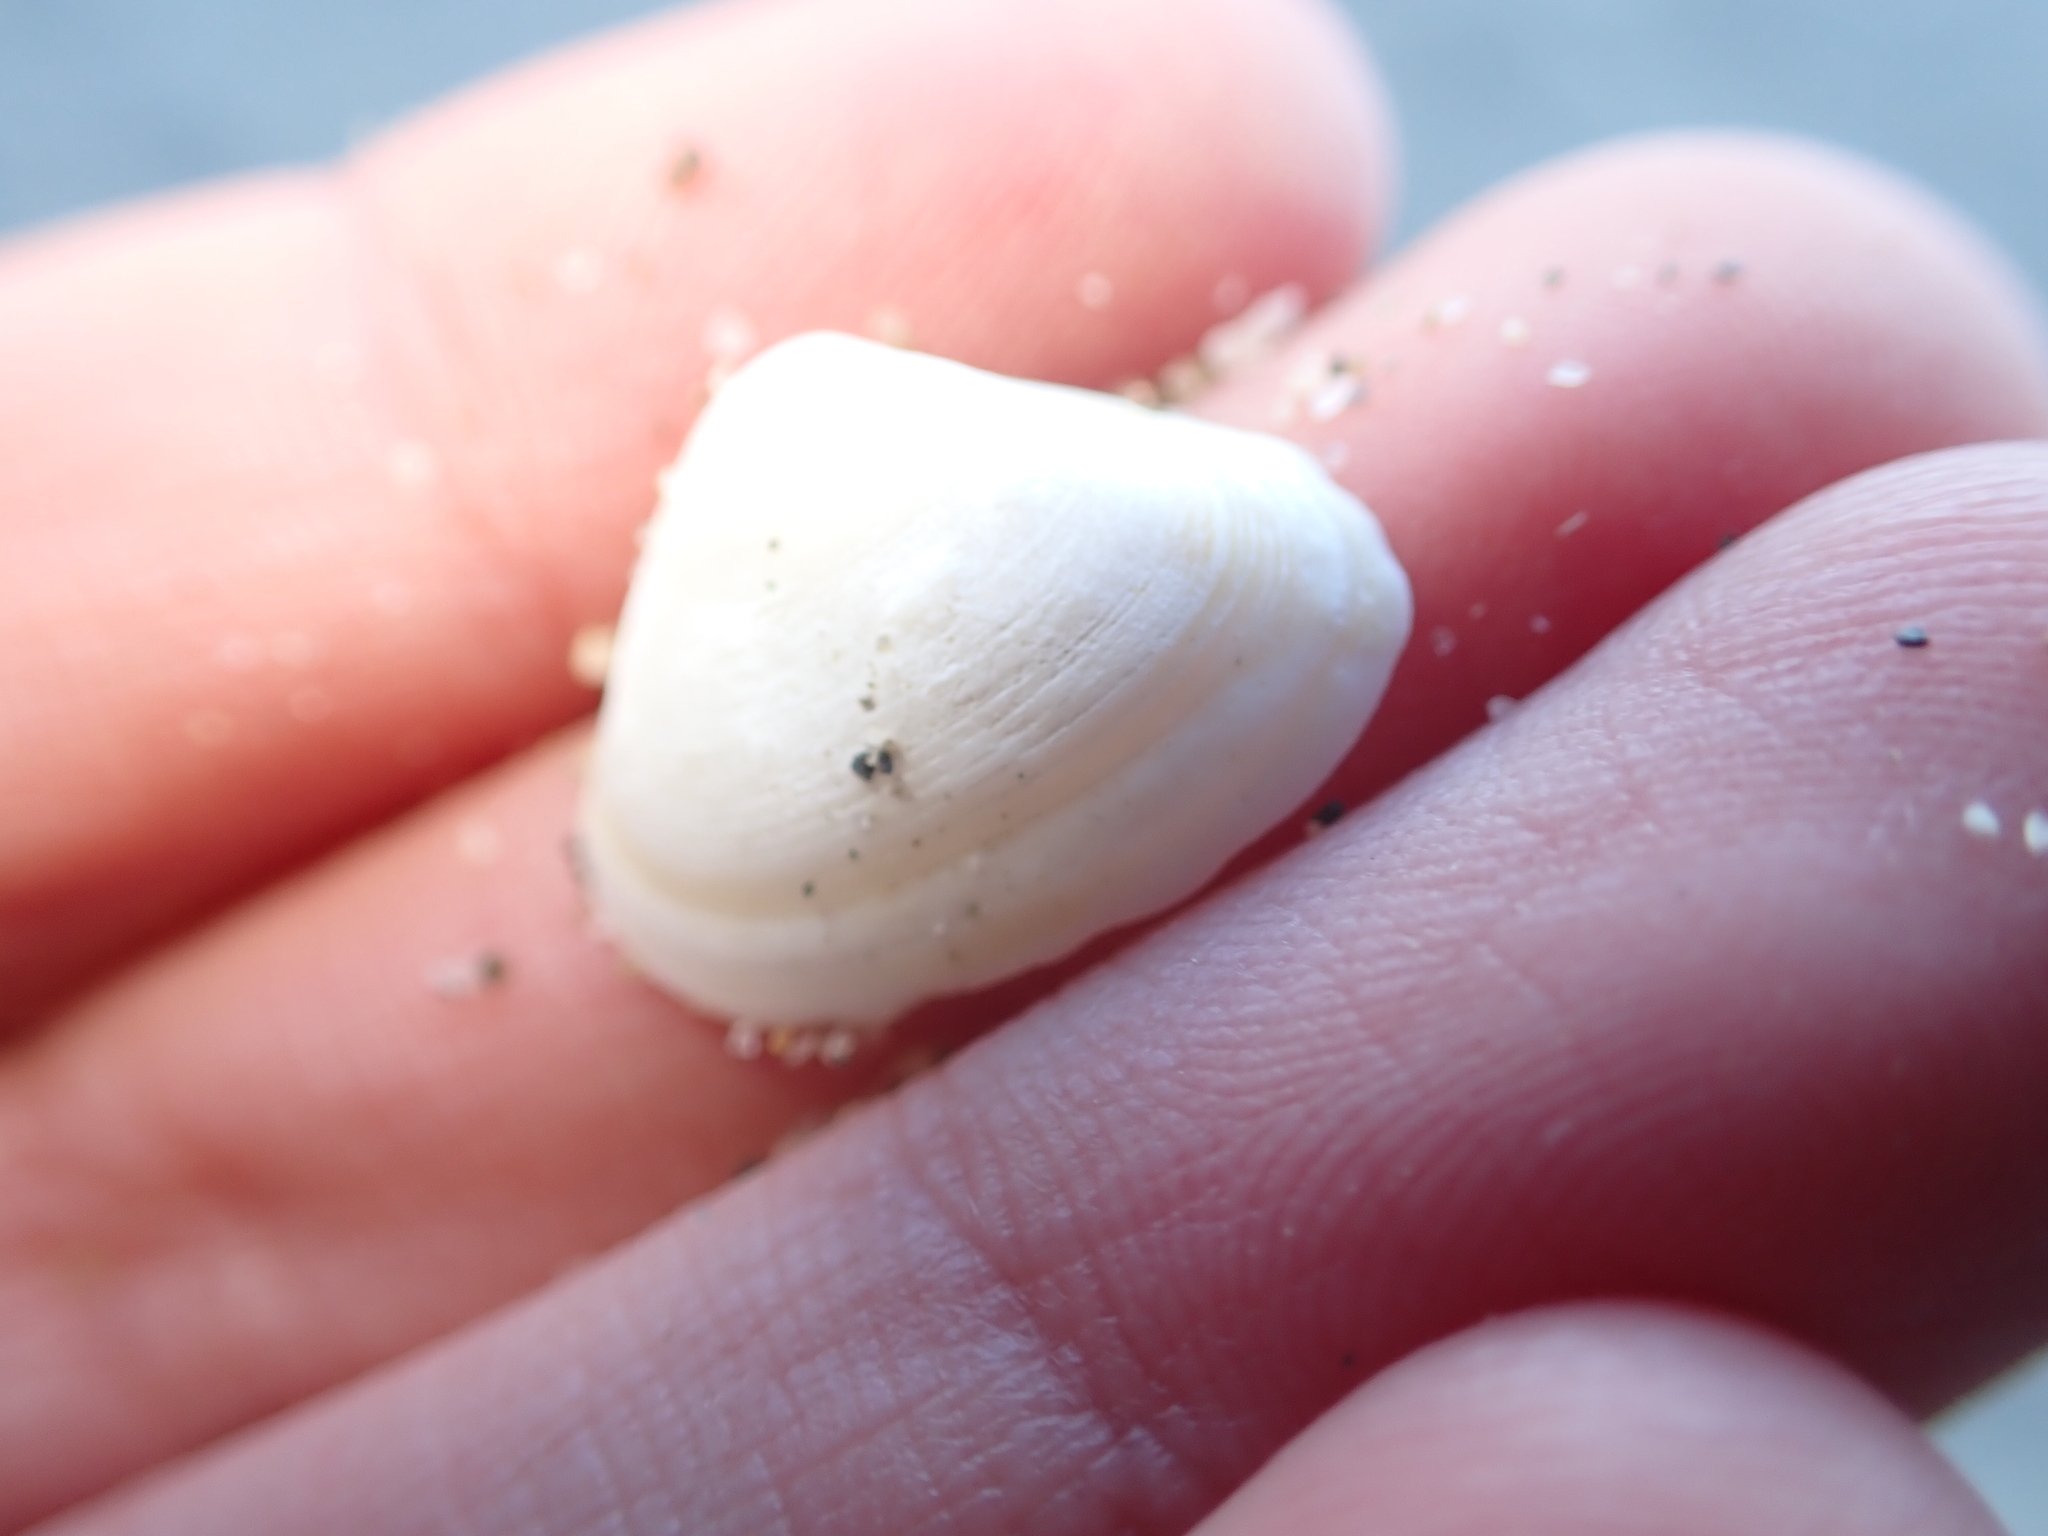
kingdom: Animalia
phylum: Mollusca
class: Bivalvia
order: Venerida
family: Mactridae
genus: Spisula
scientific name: Spisula subtruncata
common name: Cut trough shell
